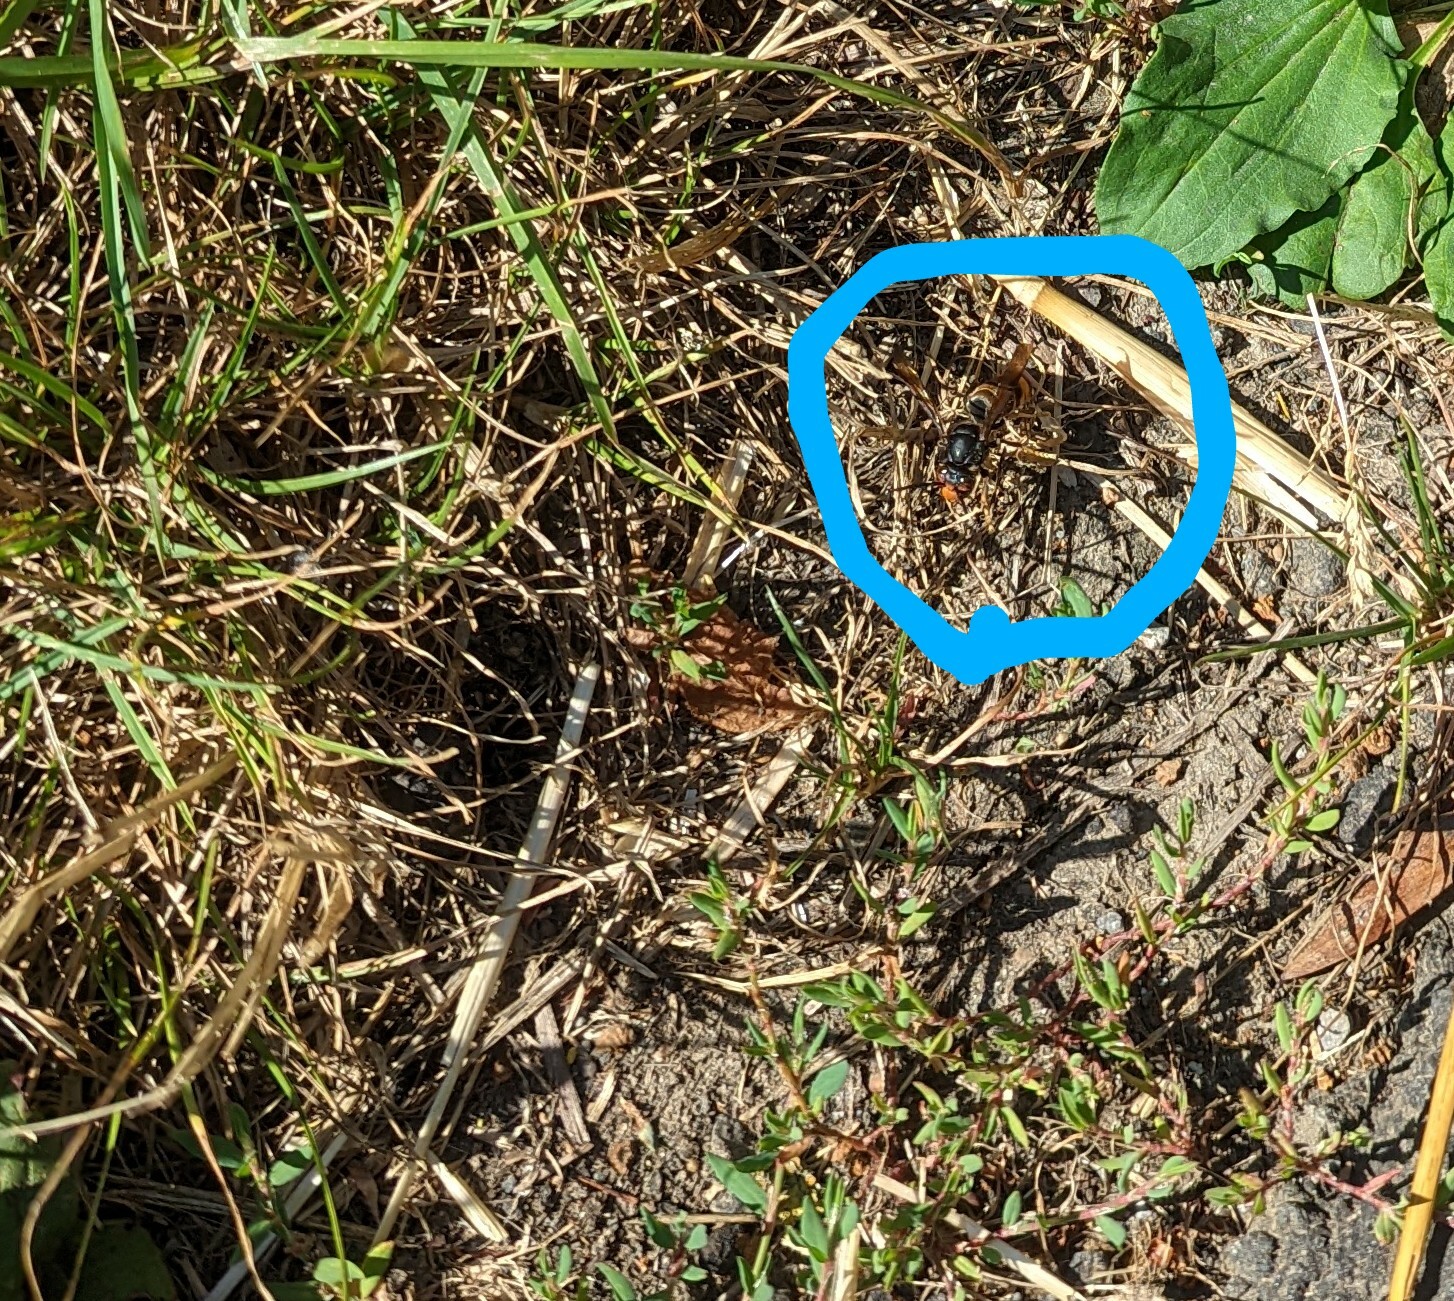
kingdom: Animalia
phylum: Arthropoda
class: Insecta
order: Hymenoptera
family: Vespidae
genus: Vespa
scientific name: Vespa velutina
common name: Asian hornet
